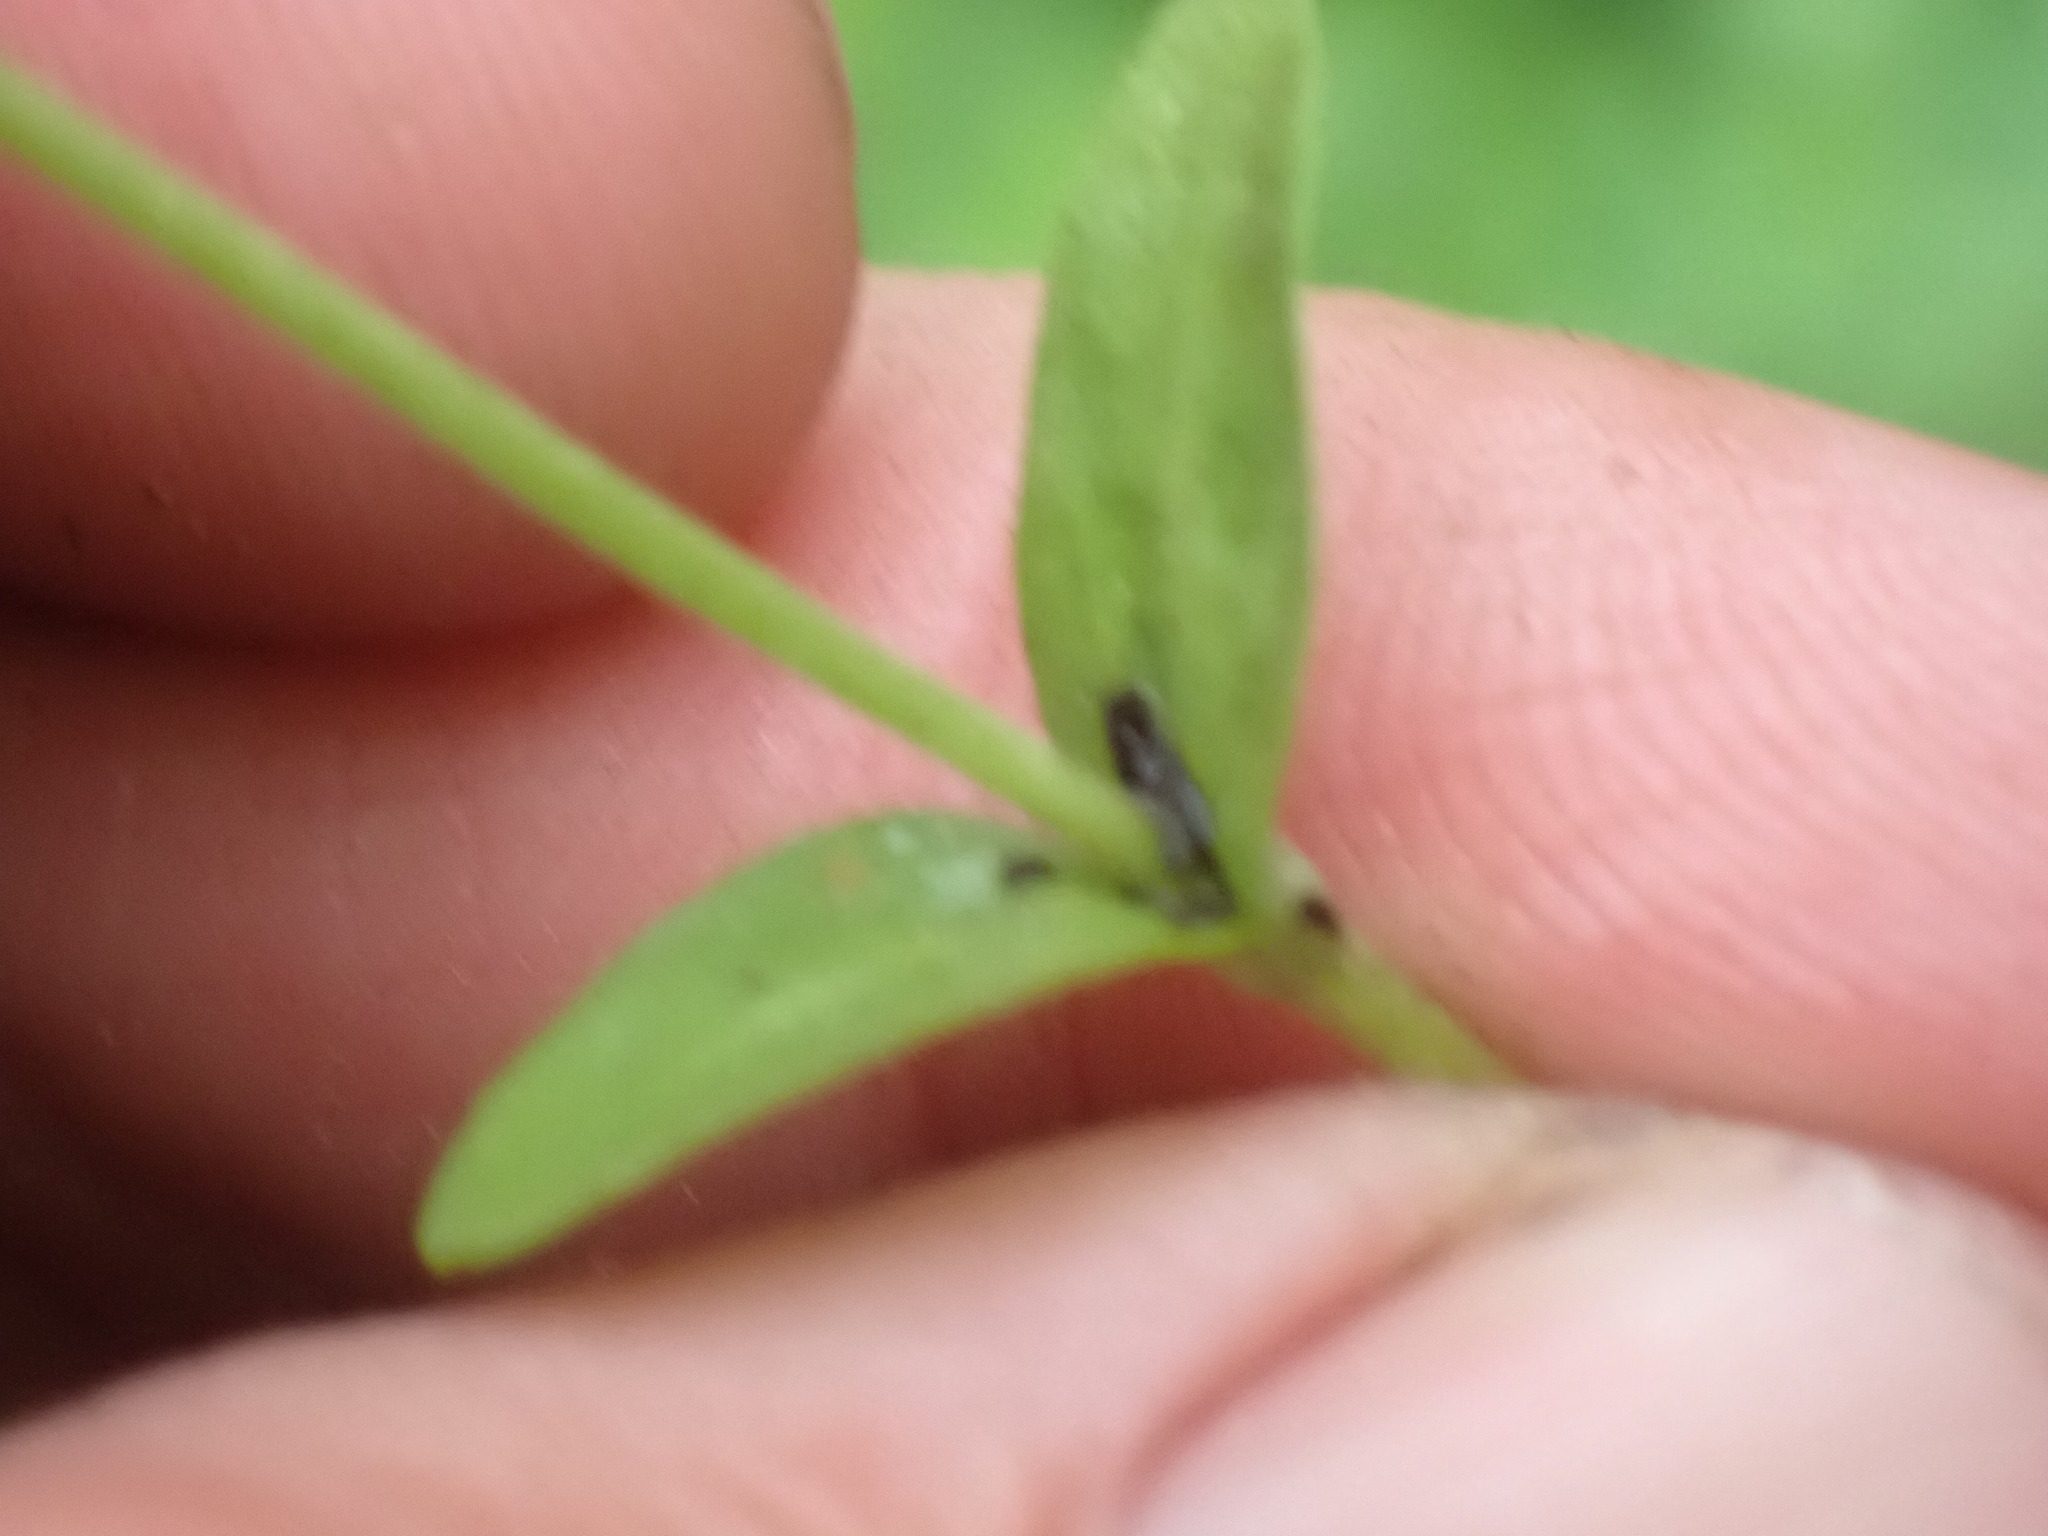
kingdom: Plantae
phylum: Tracheophyta
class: Magnoliopsida
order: Lamiales
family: Plantaginaceae
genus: Veronica
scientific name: Veronica serpyllifolia
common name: Thyme-leaved speedwell
